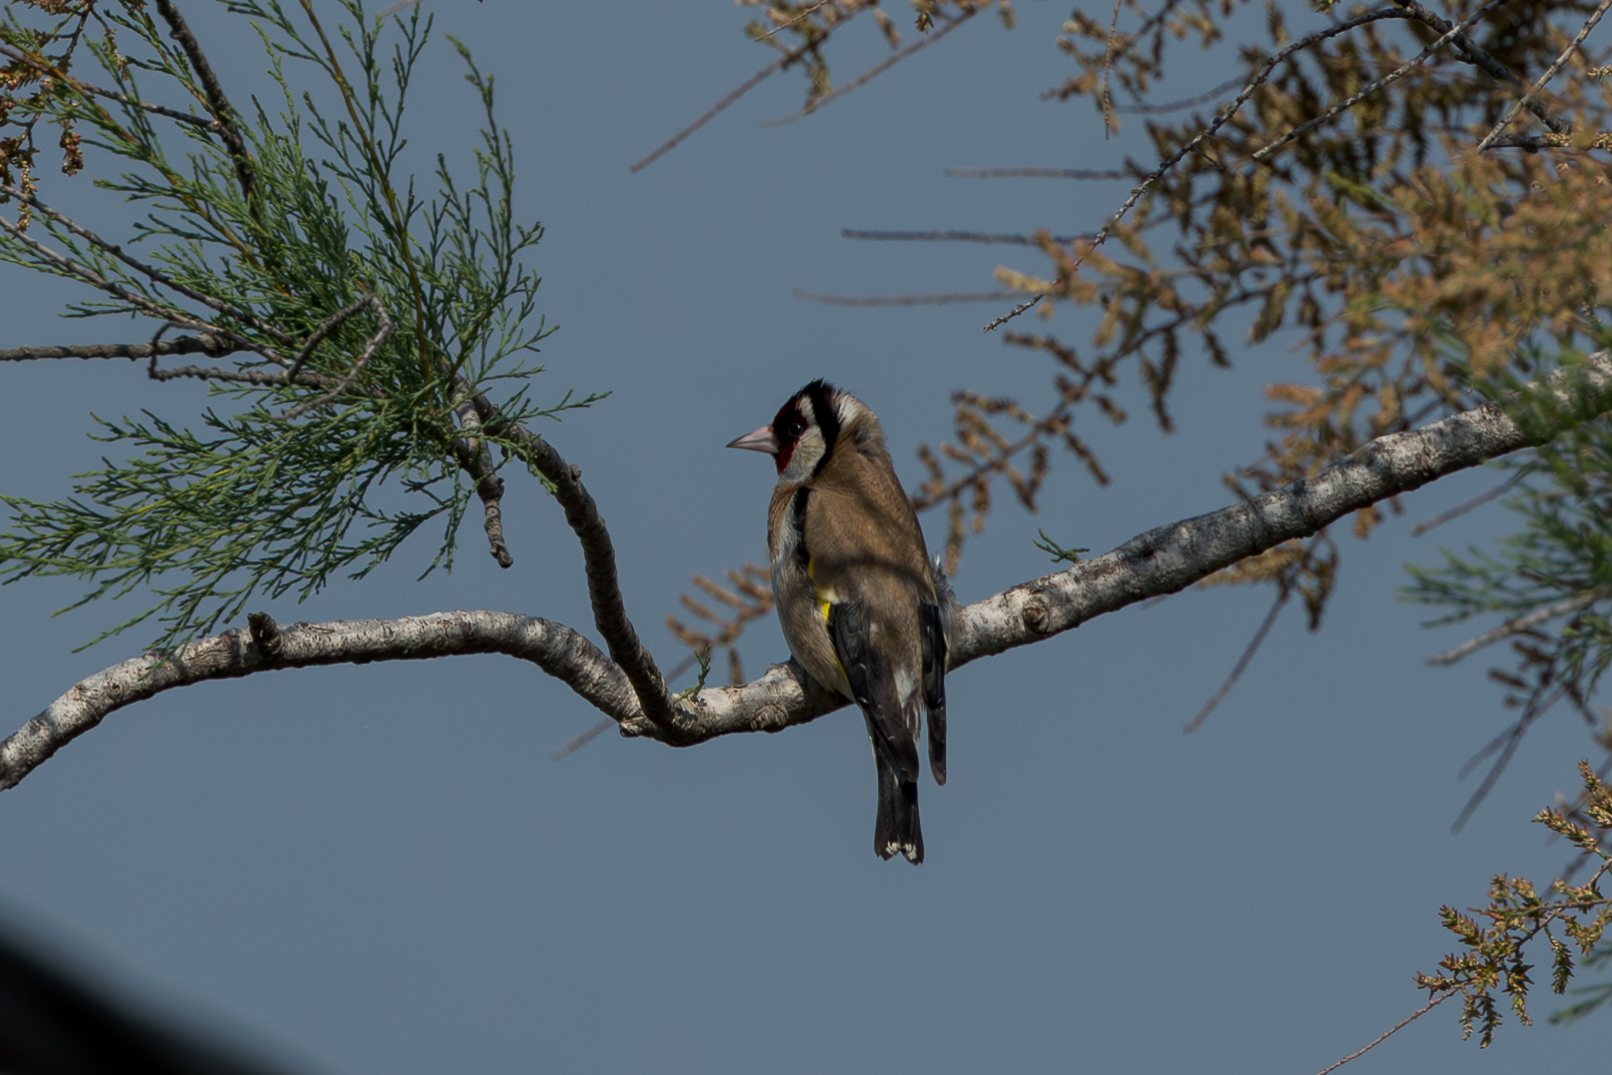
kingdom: Animalia
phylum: Chordata
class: Aves
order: Passeriformes
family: Fringillidae
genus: Carduelis
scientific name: Carduelis carduelis
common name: European goldfinch
